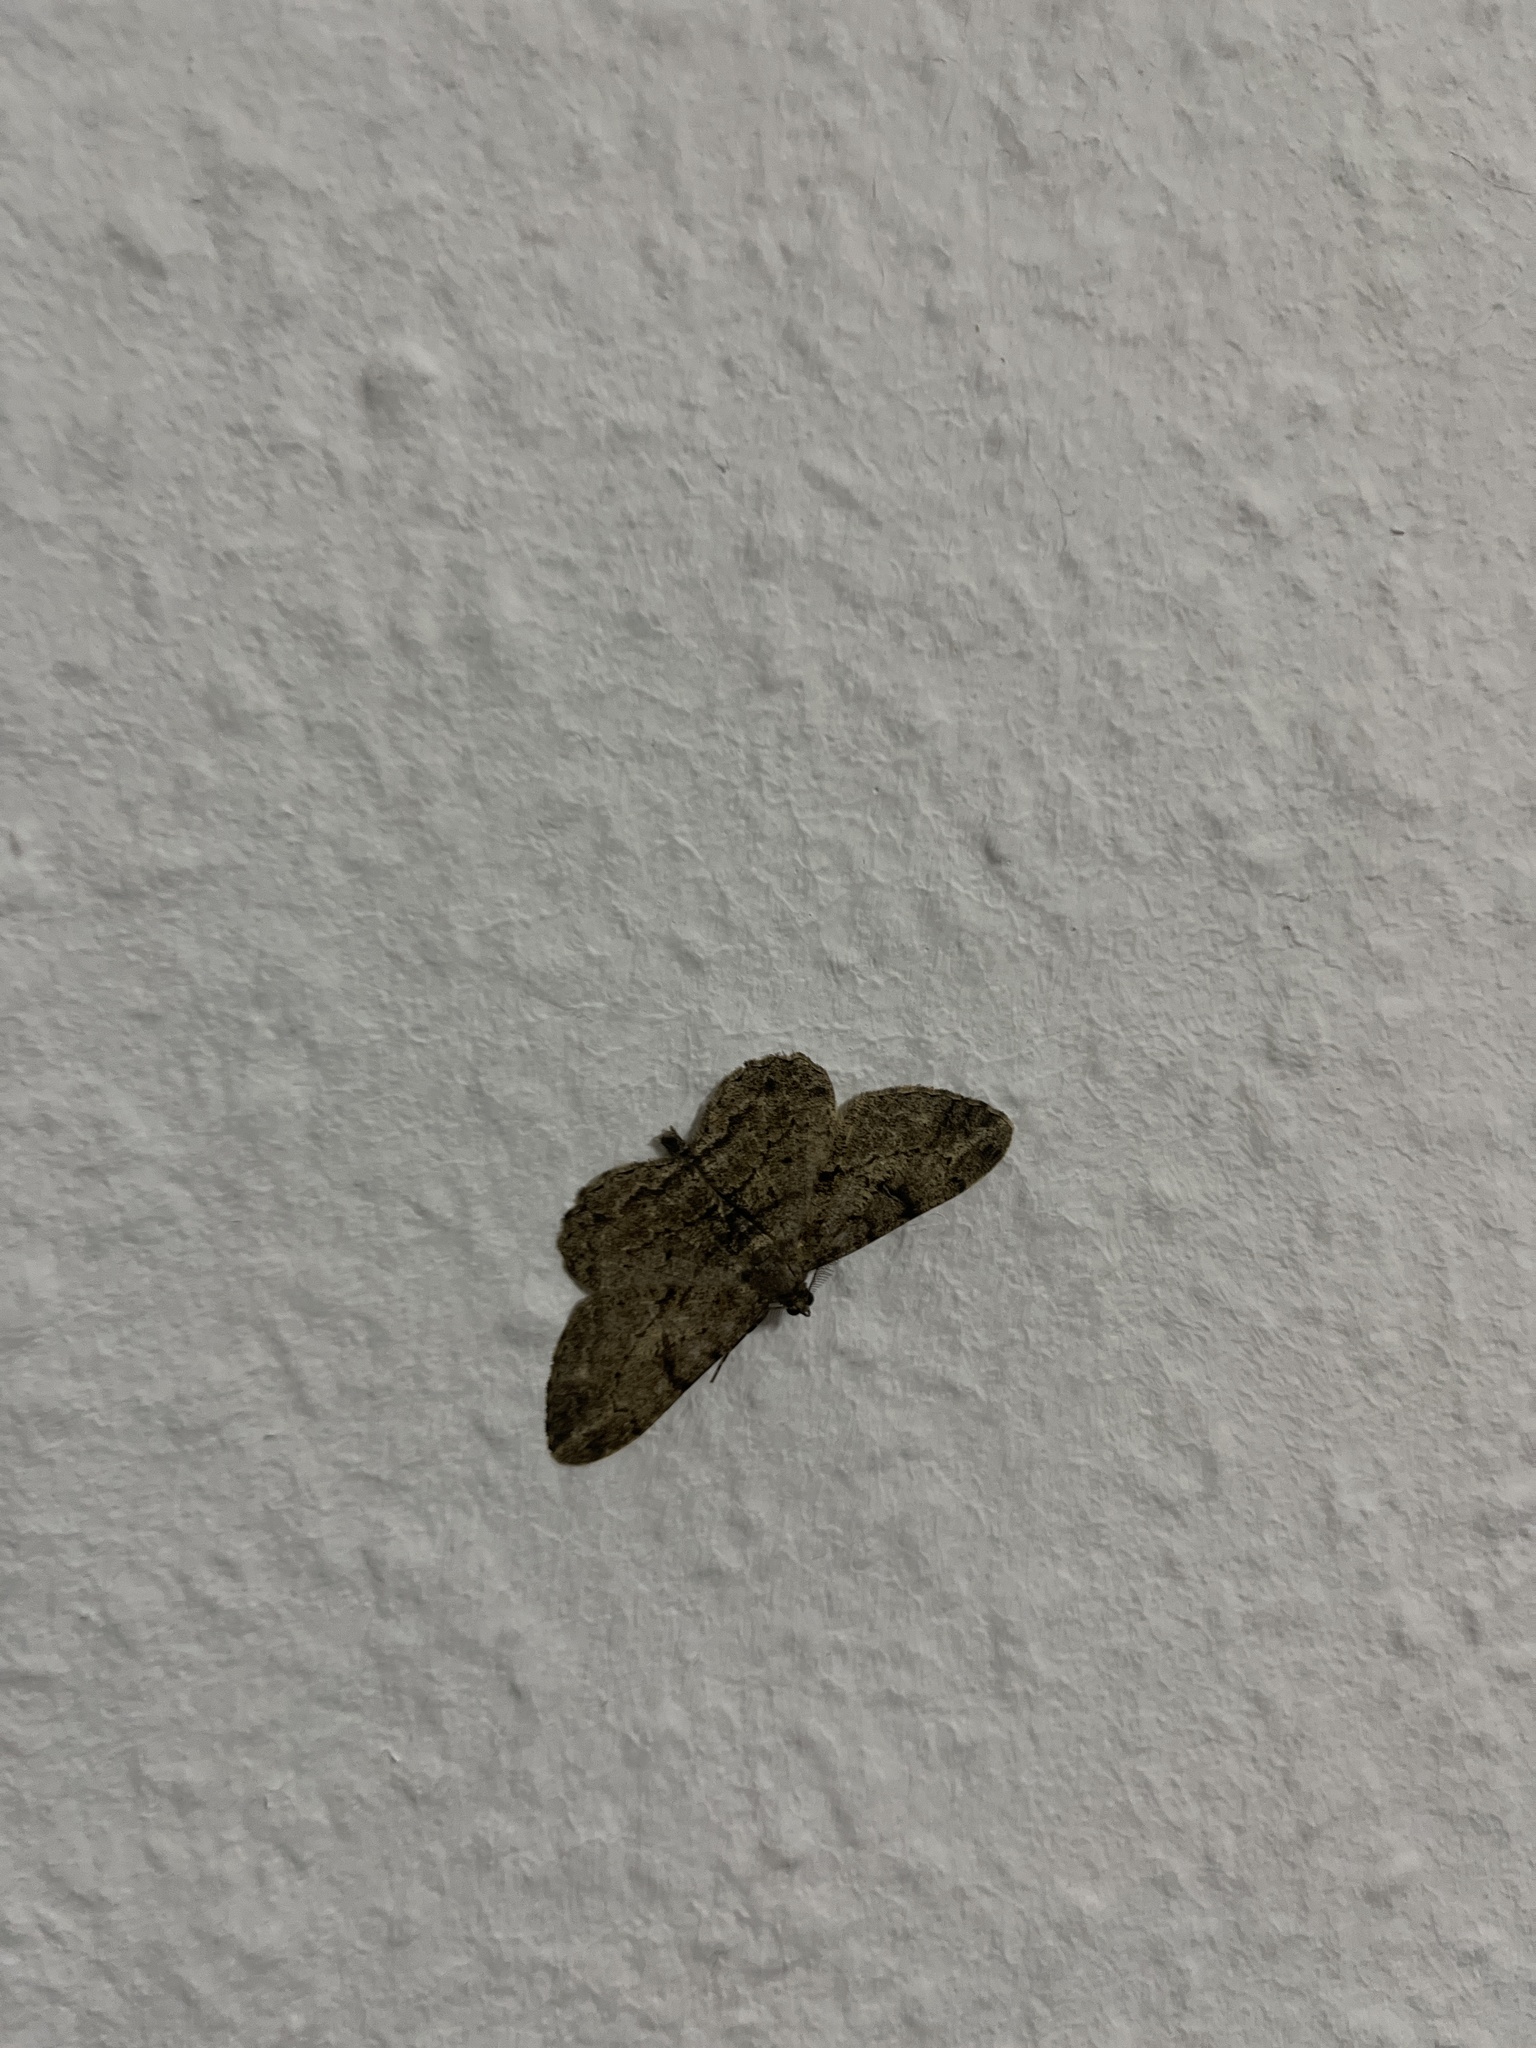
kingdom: Animalia
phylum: Arthropoda
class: Insecta
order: Lepidoptera
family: Geometridae
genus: Peribatodes
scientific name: Peribatodes rhomboidaria
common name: Willow beauty
